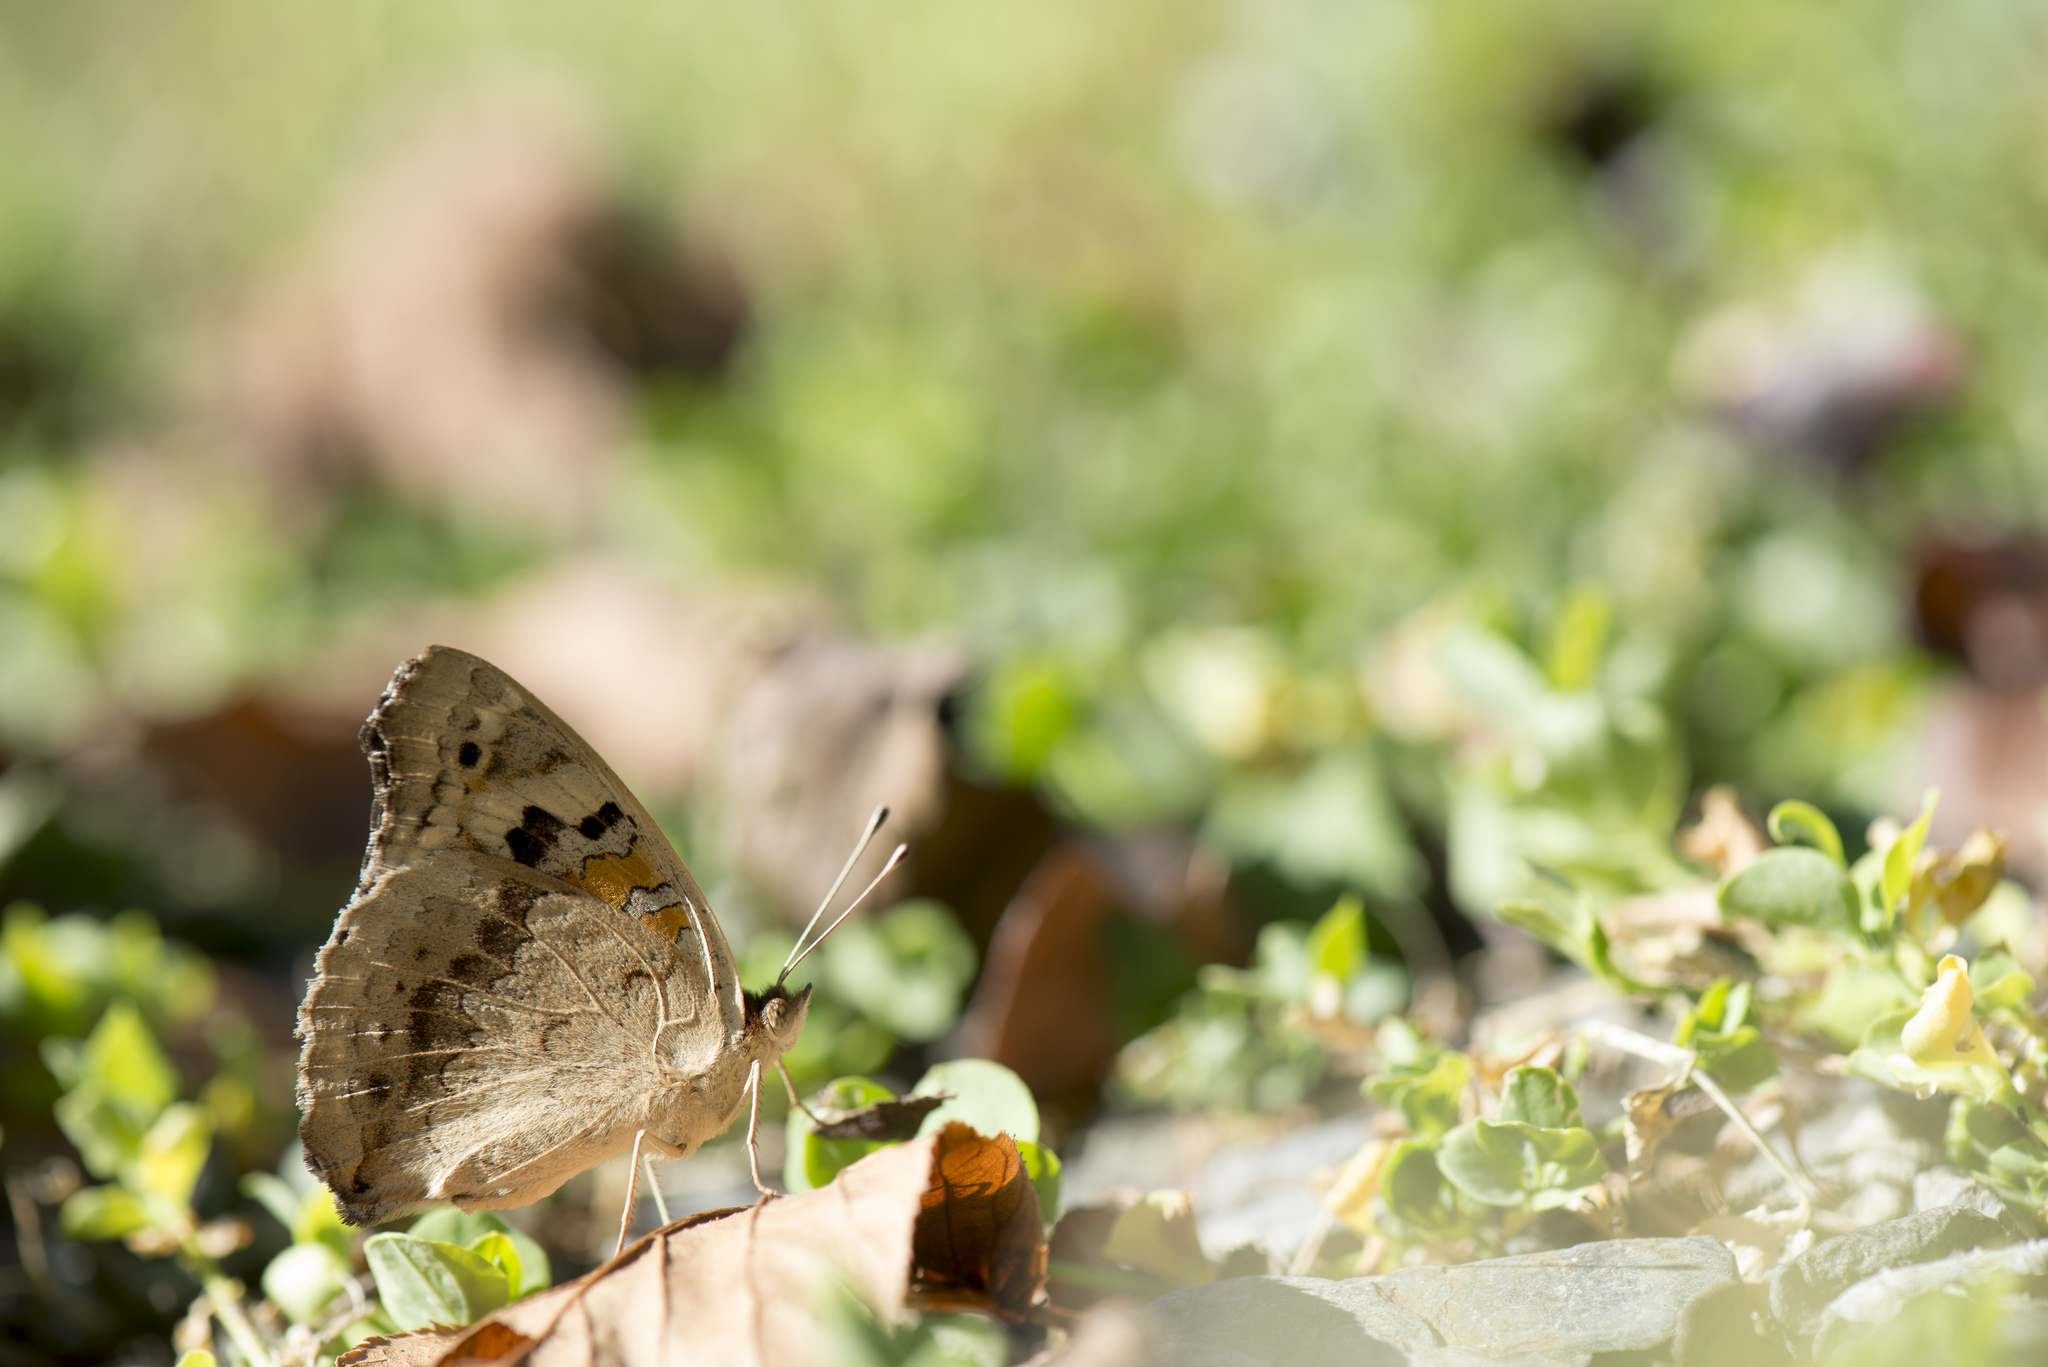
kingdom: Animalia
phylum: Arthropoda
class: Insecta
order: Lepidoptera
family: Nymphalidae
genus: Junonia
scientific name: Junonia orithya
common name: Blue pansy
